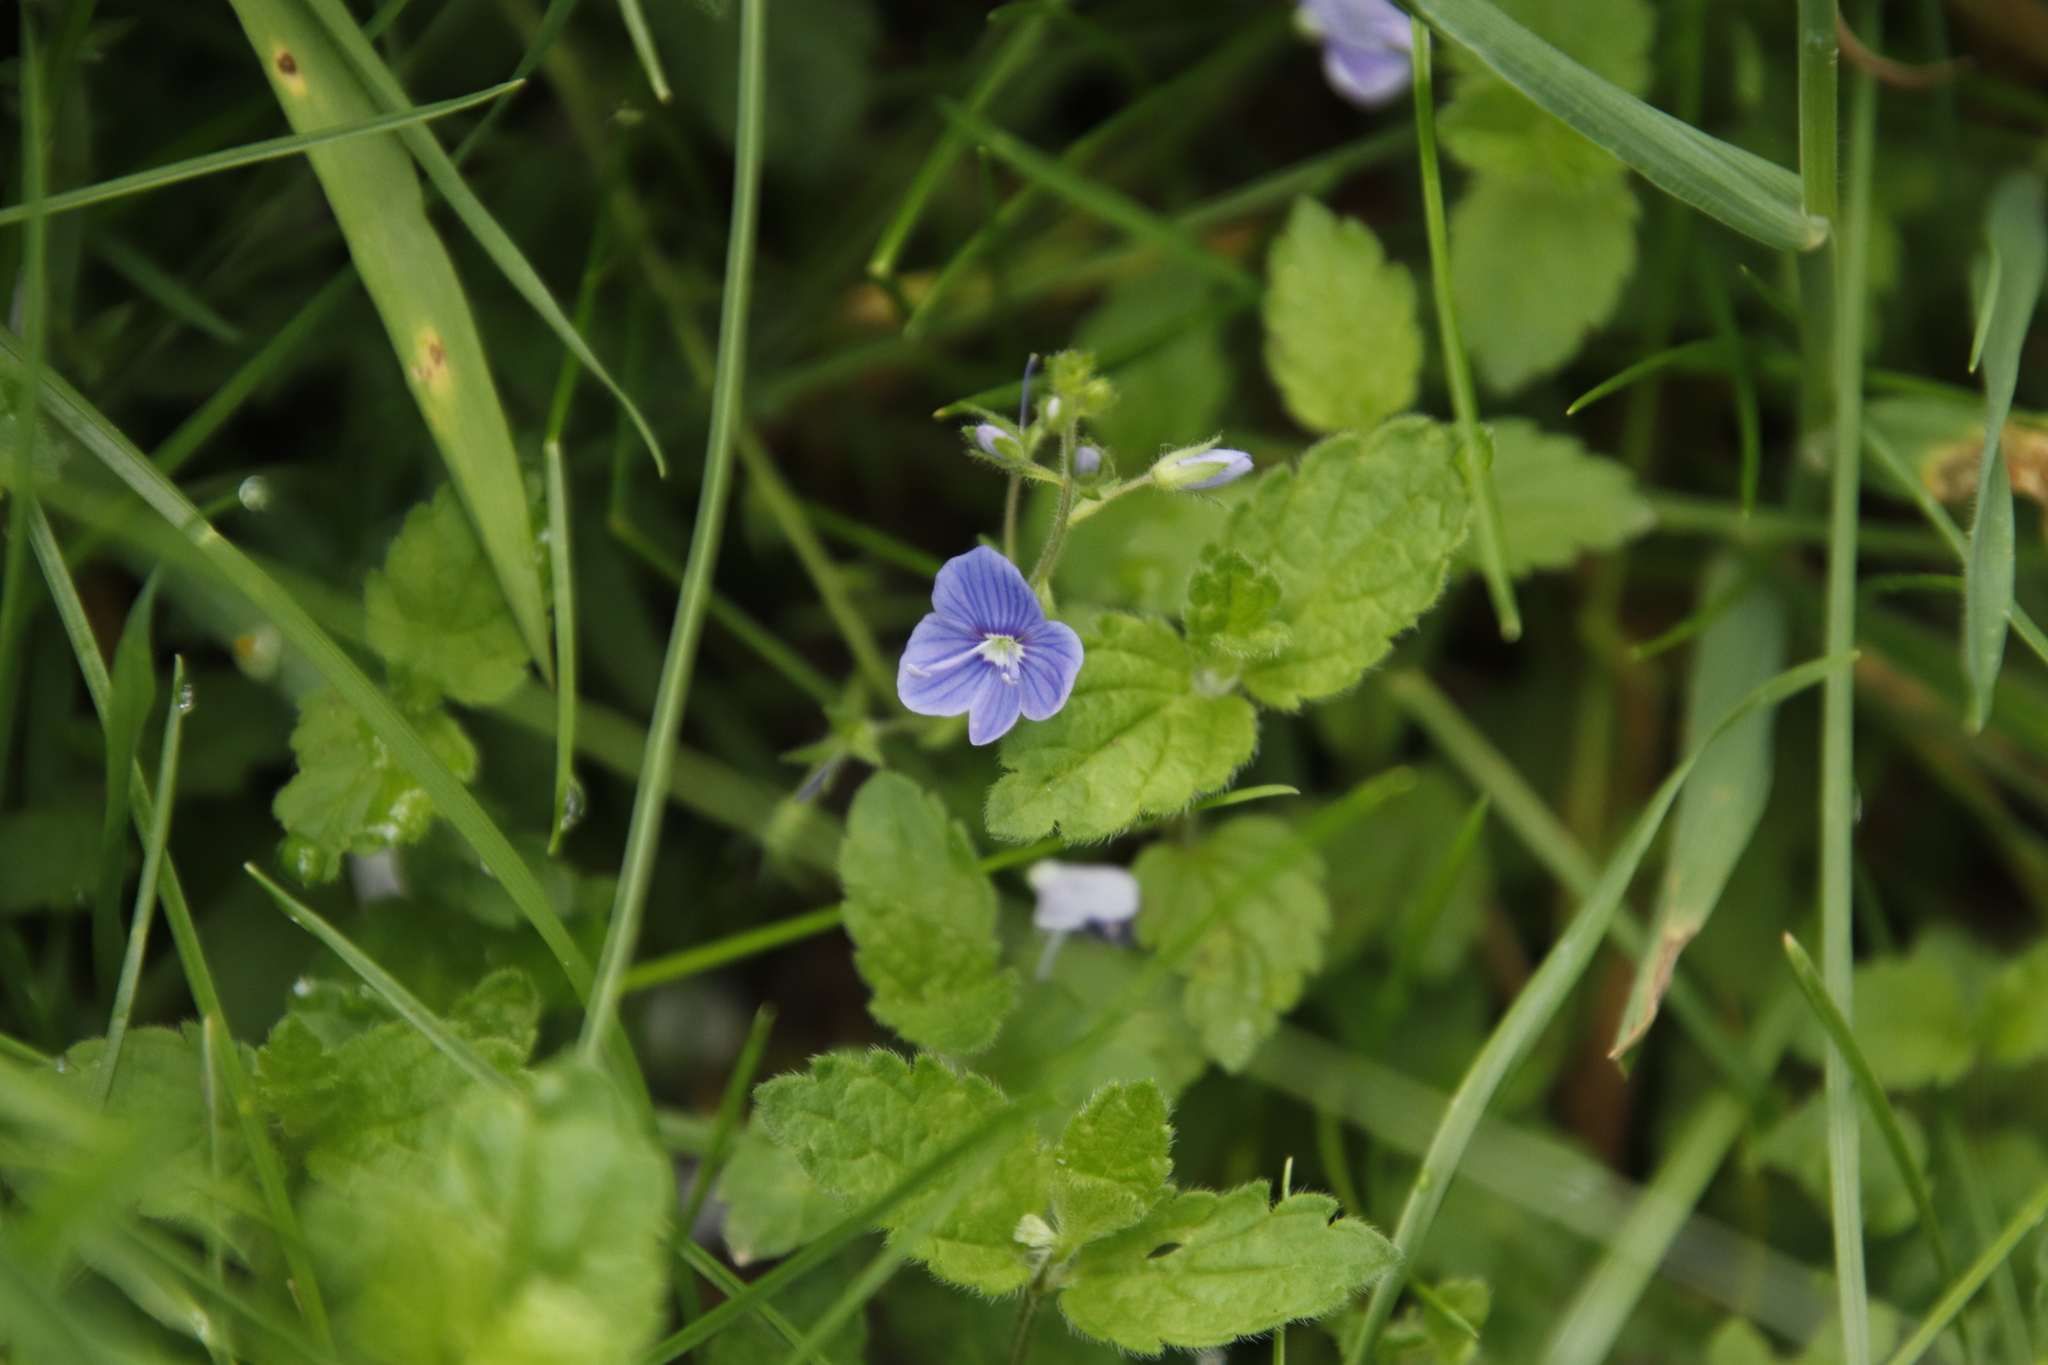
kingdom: Plantae
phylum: Tracheophyta
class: Magnoliopsida
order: Lamiales
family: Plantaginaceae
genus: Veronica
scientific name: Veronica chamaedrys
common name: Germander speedwell
